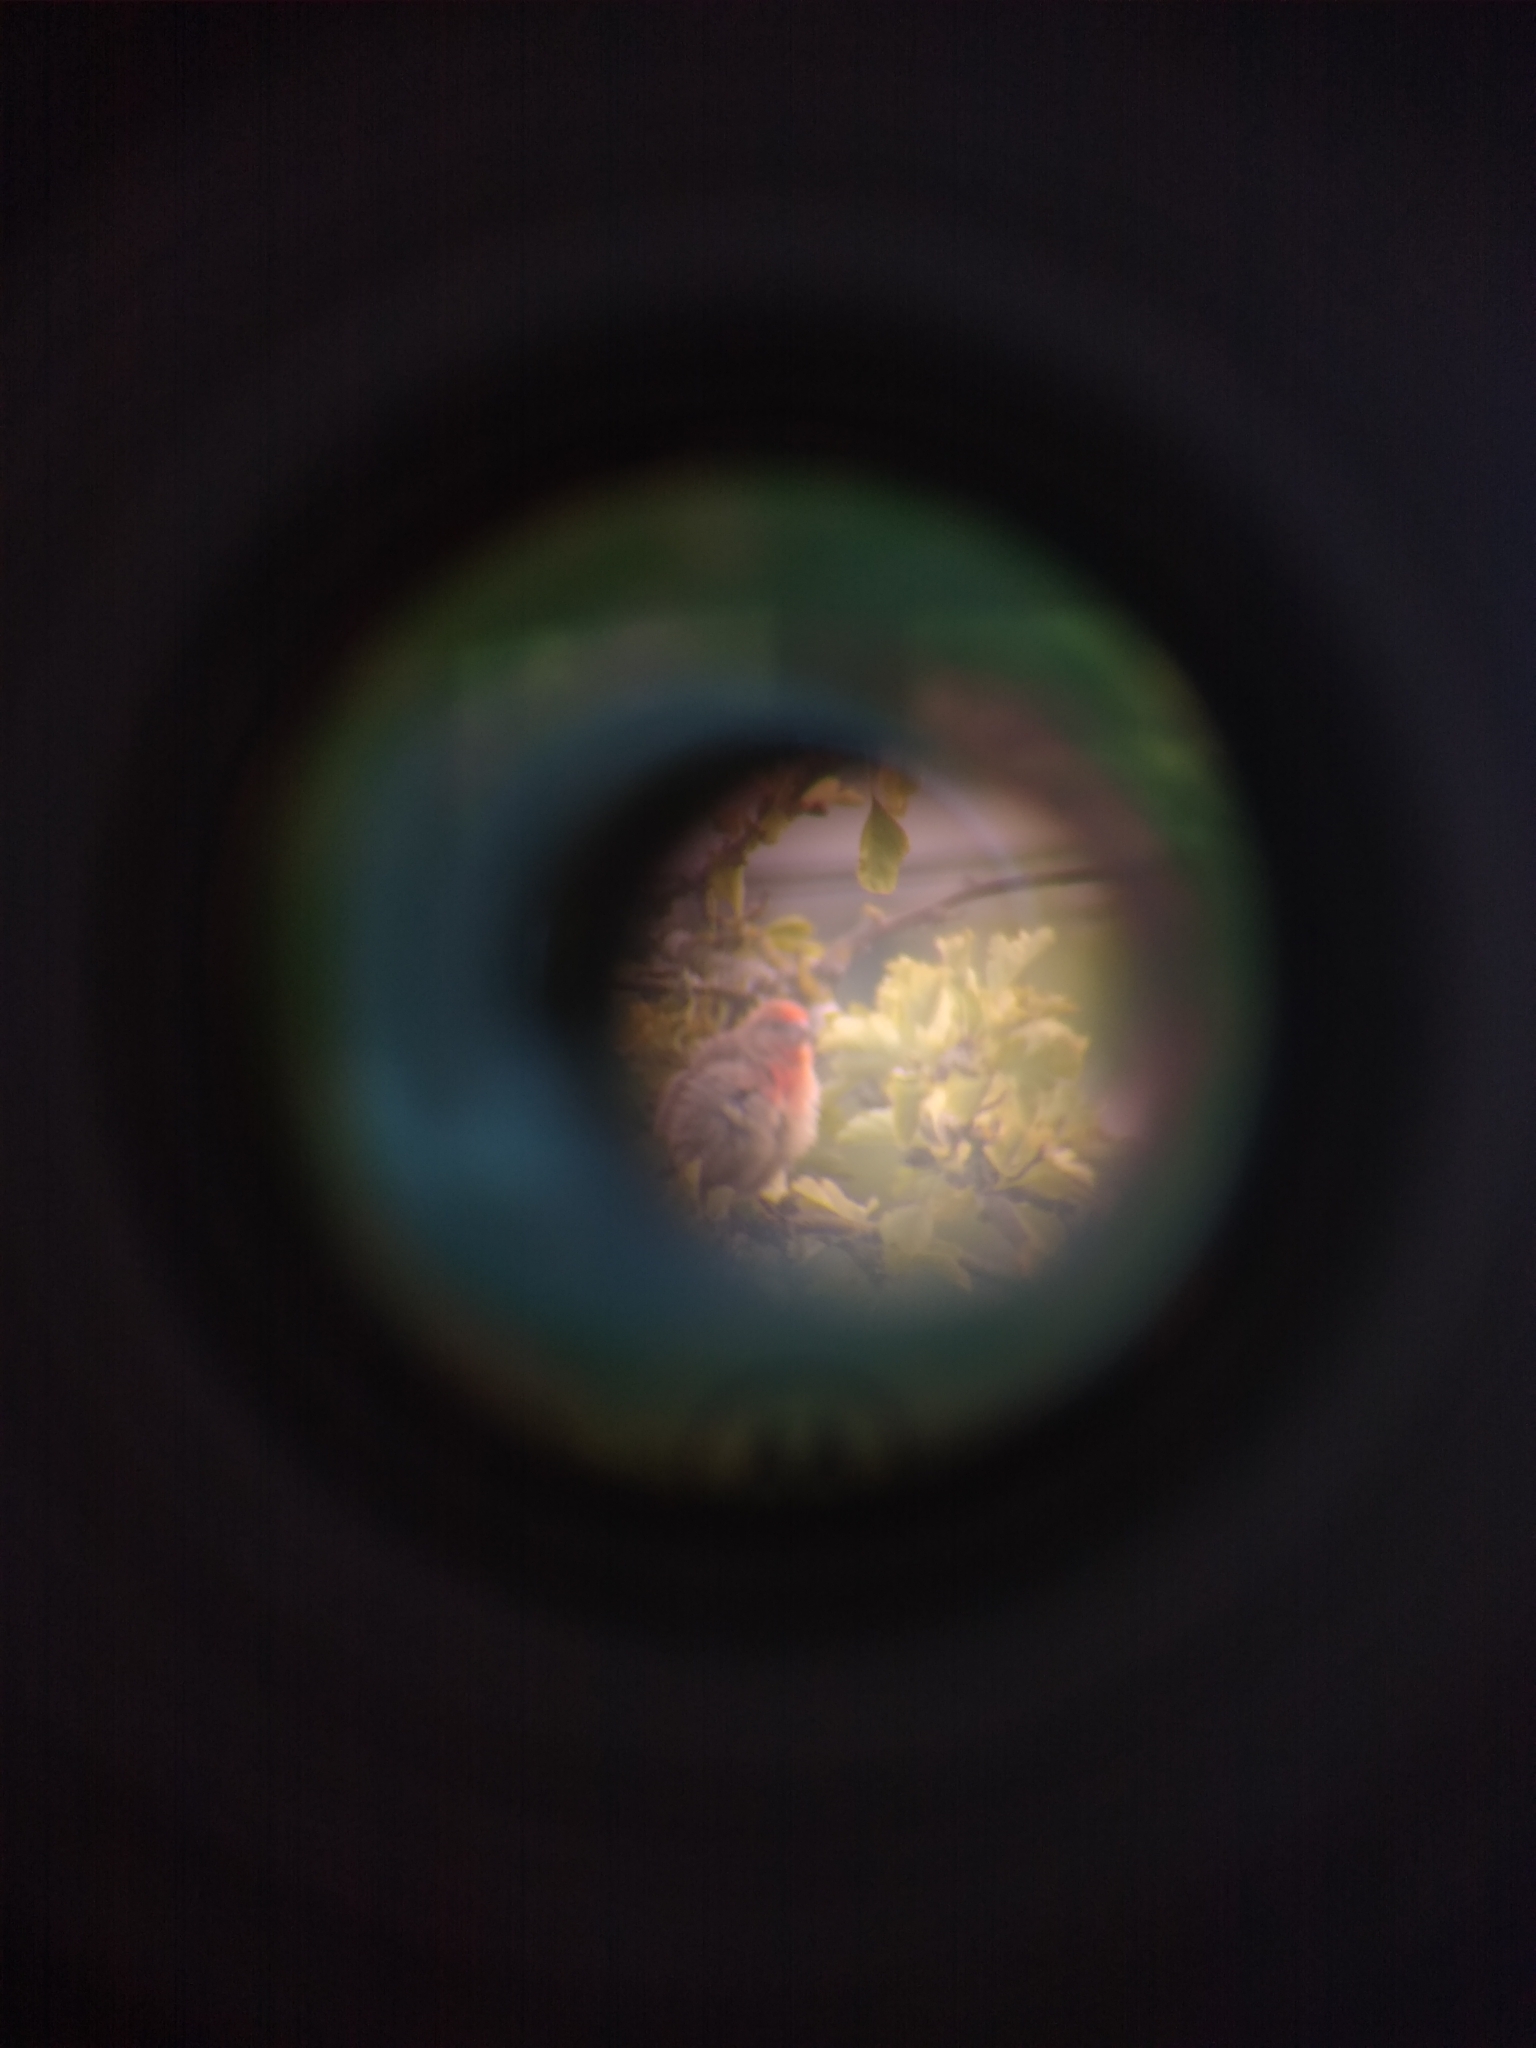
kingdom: Animalia
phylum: Chordata
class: Aves
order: Passeriformes
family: Fringillidae
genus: Haemorhous
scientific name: Haemorhous mexicanus
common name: House finch
